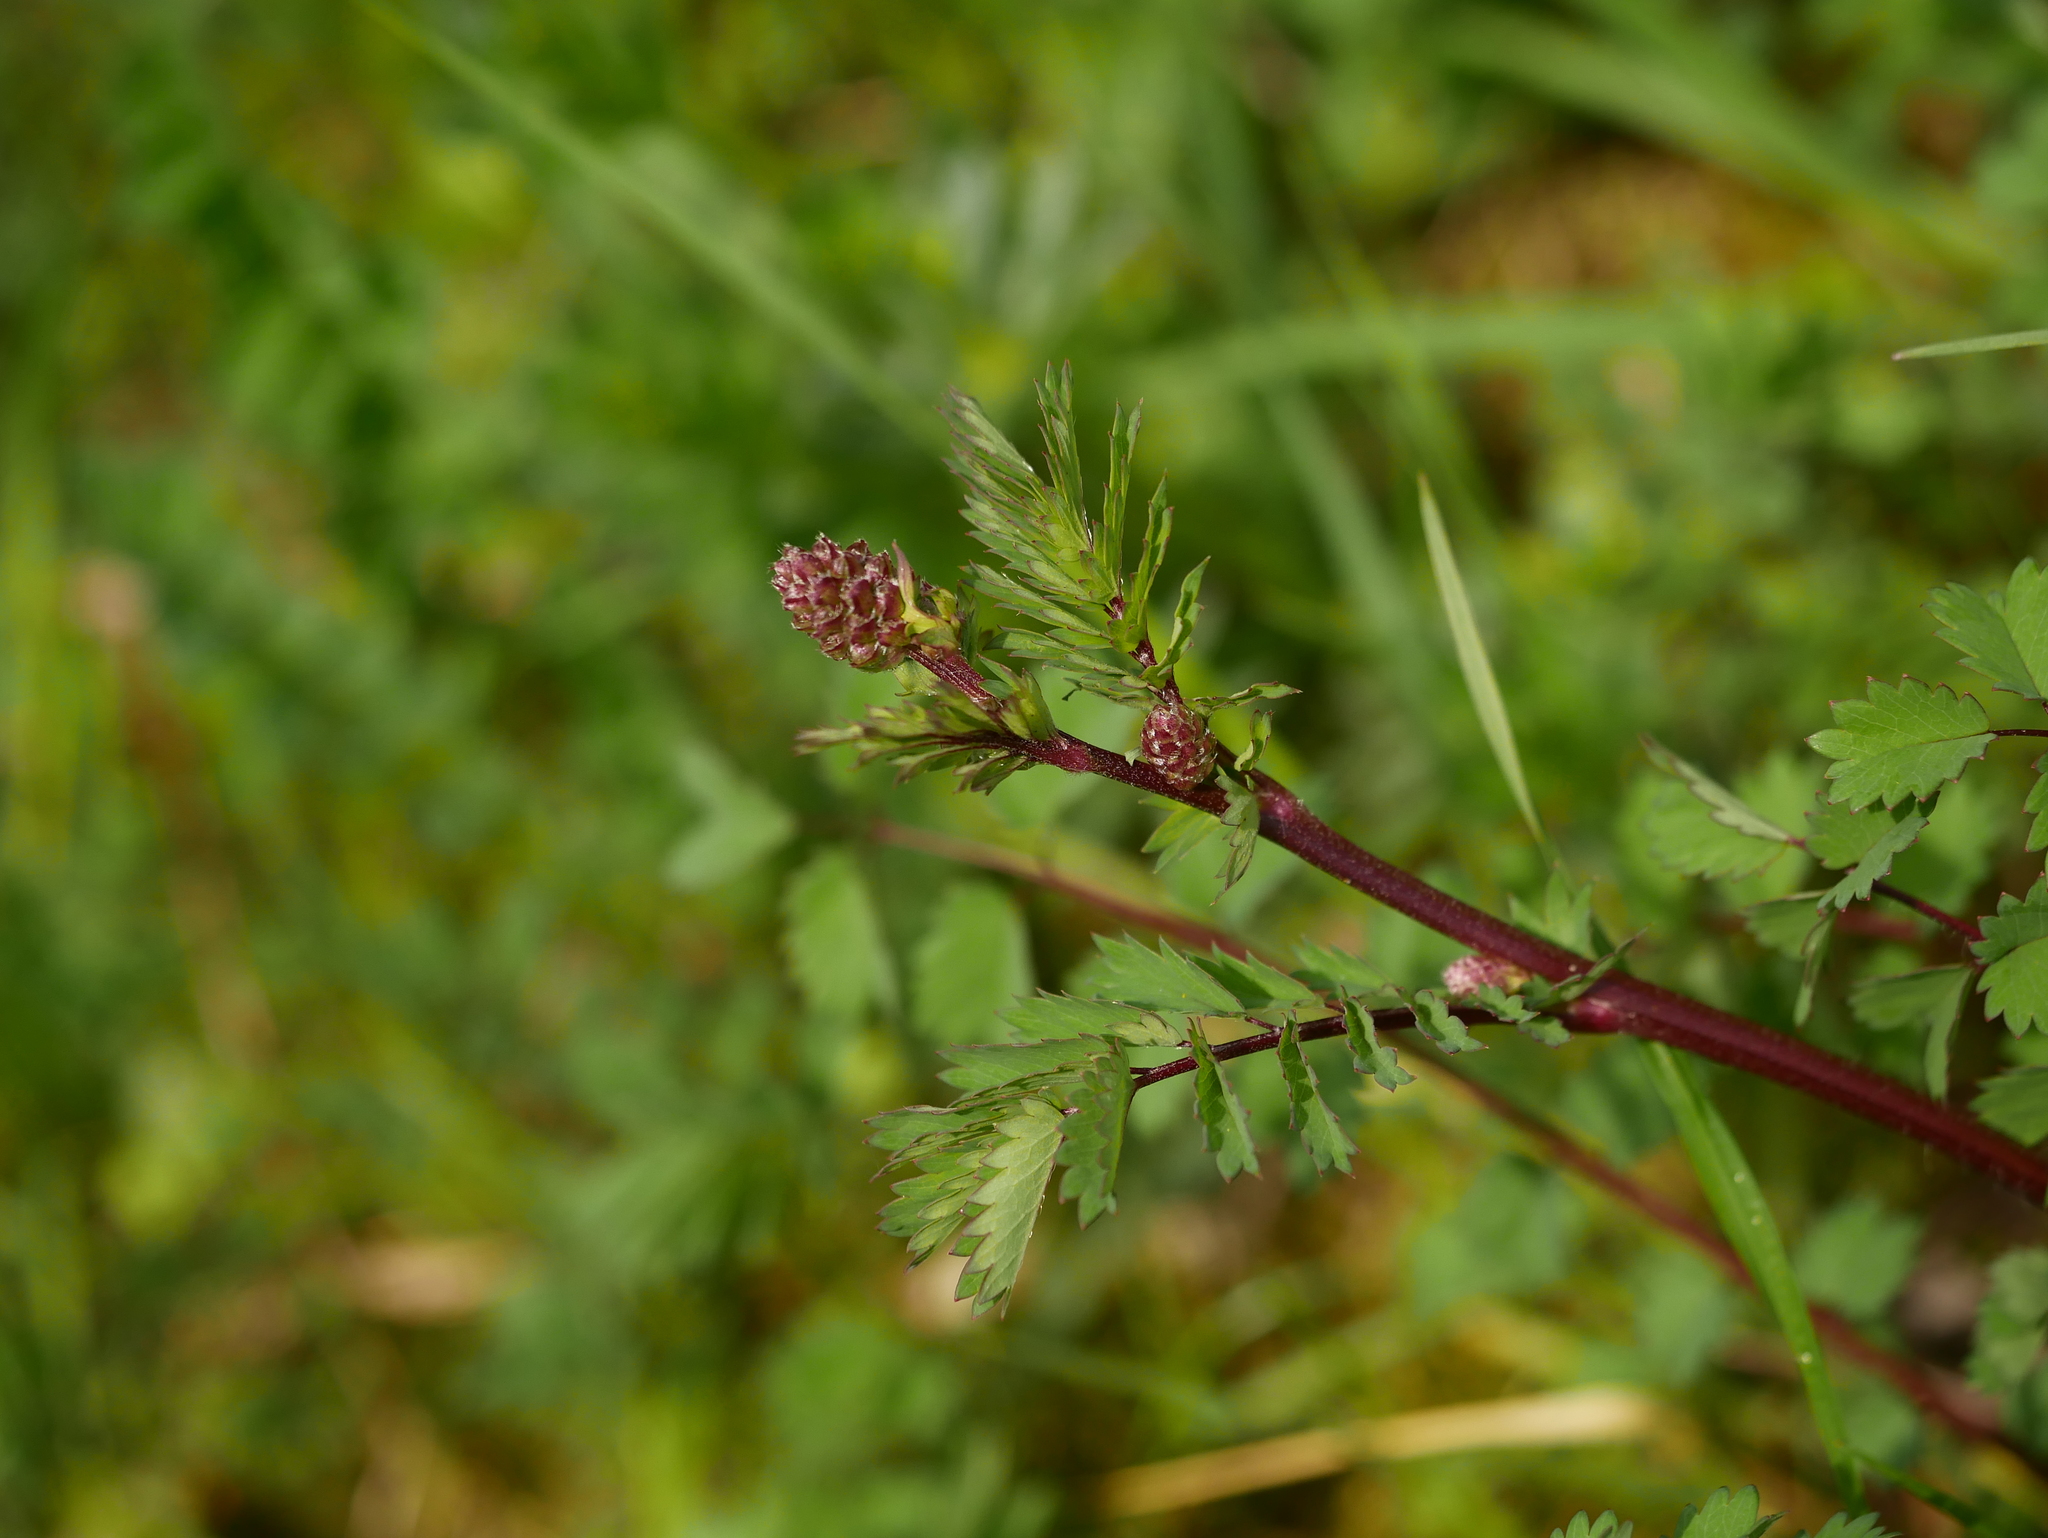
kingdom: Plantae
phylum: Tracheophyta
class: Magnoliopsida
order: Rosales
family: Rosaceae
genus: Poterium
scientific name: Poterium sanguisorba
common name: Salad burnet
